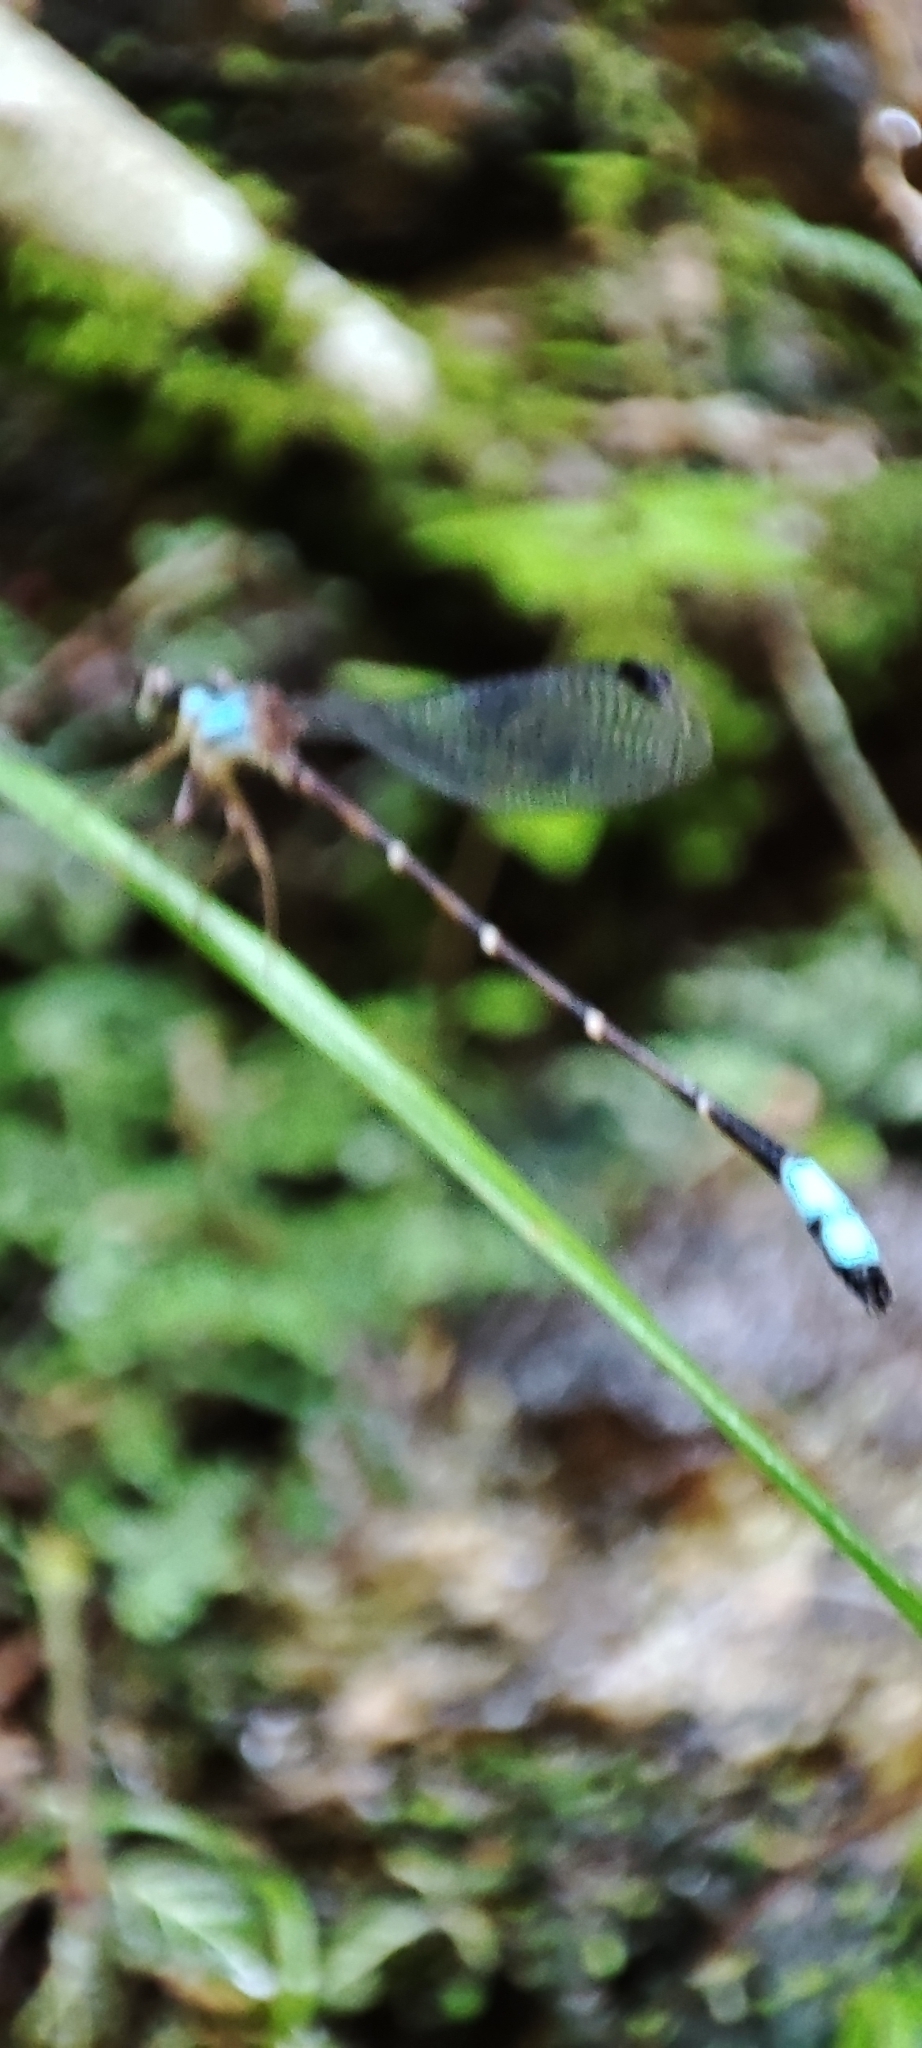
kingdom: Animalia
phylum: Arthropoda
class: Insecta
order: Odonata
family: Platystictidae
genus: Palaemnema
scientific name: Palaemnema domina
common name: Desert shadowdamsel
